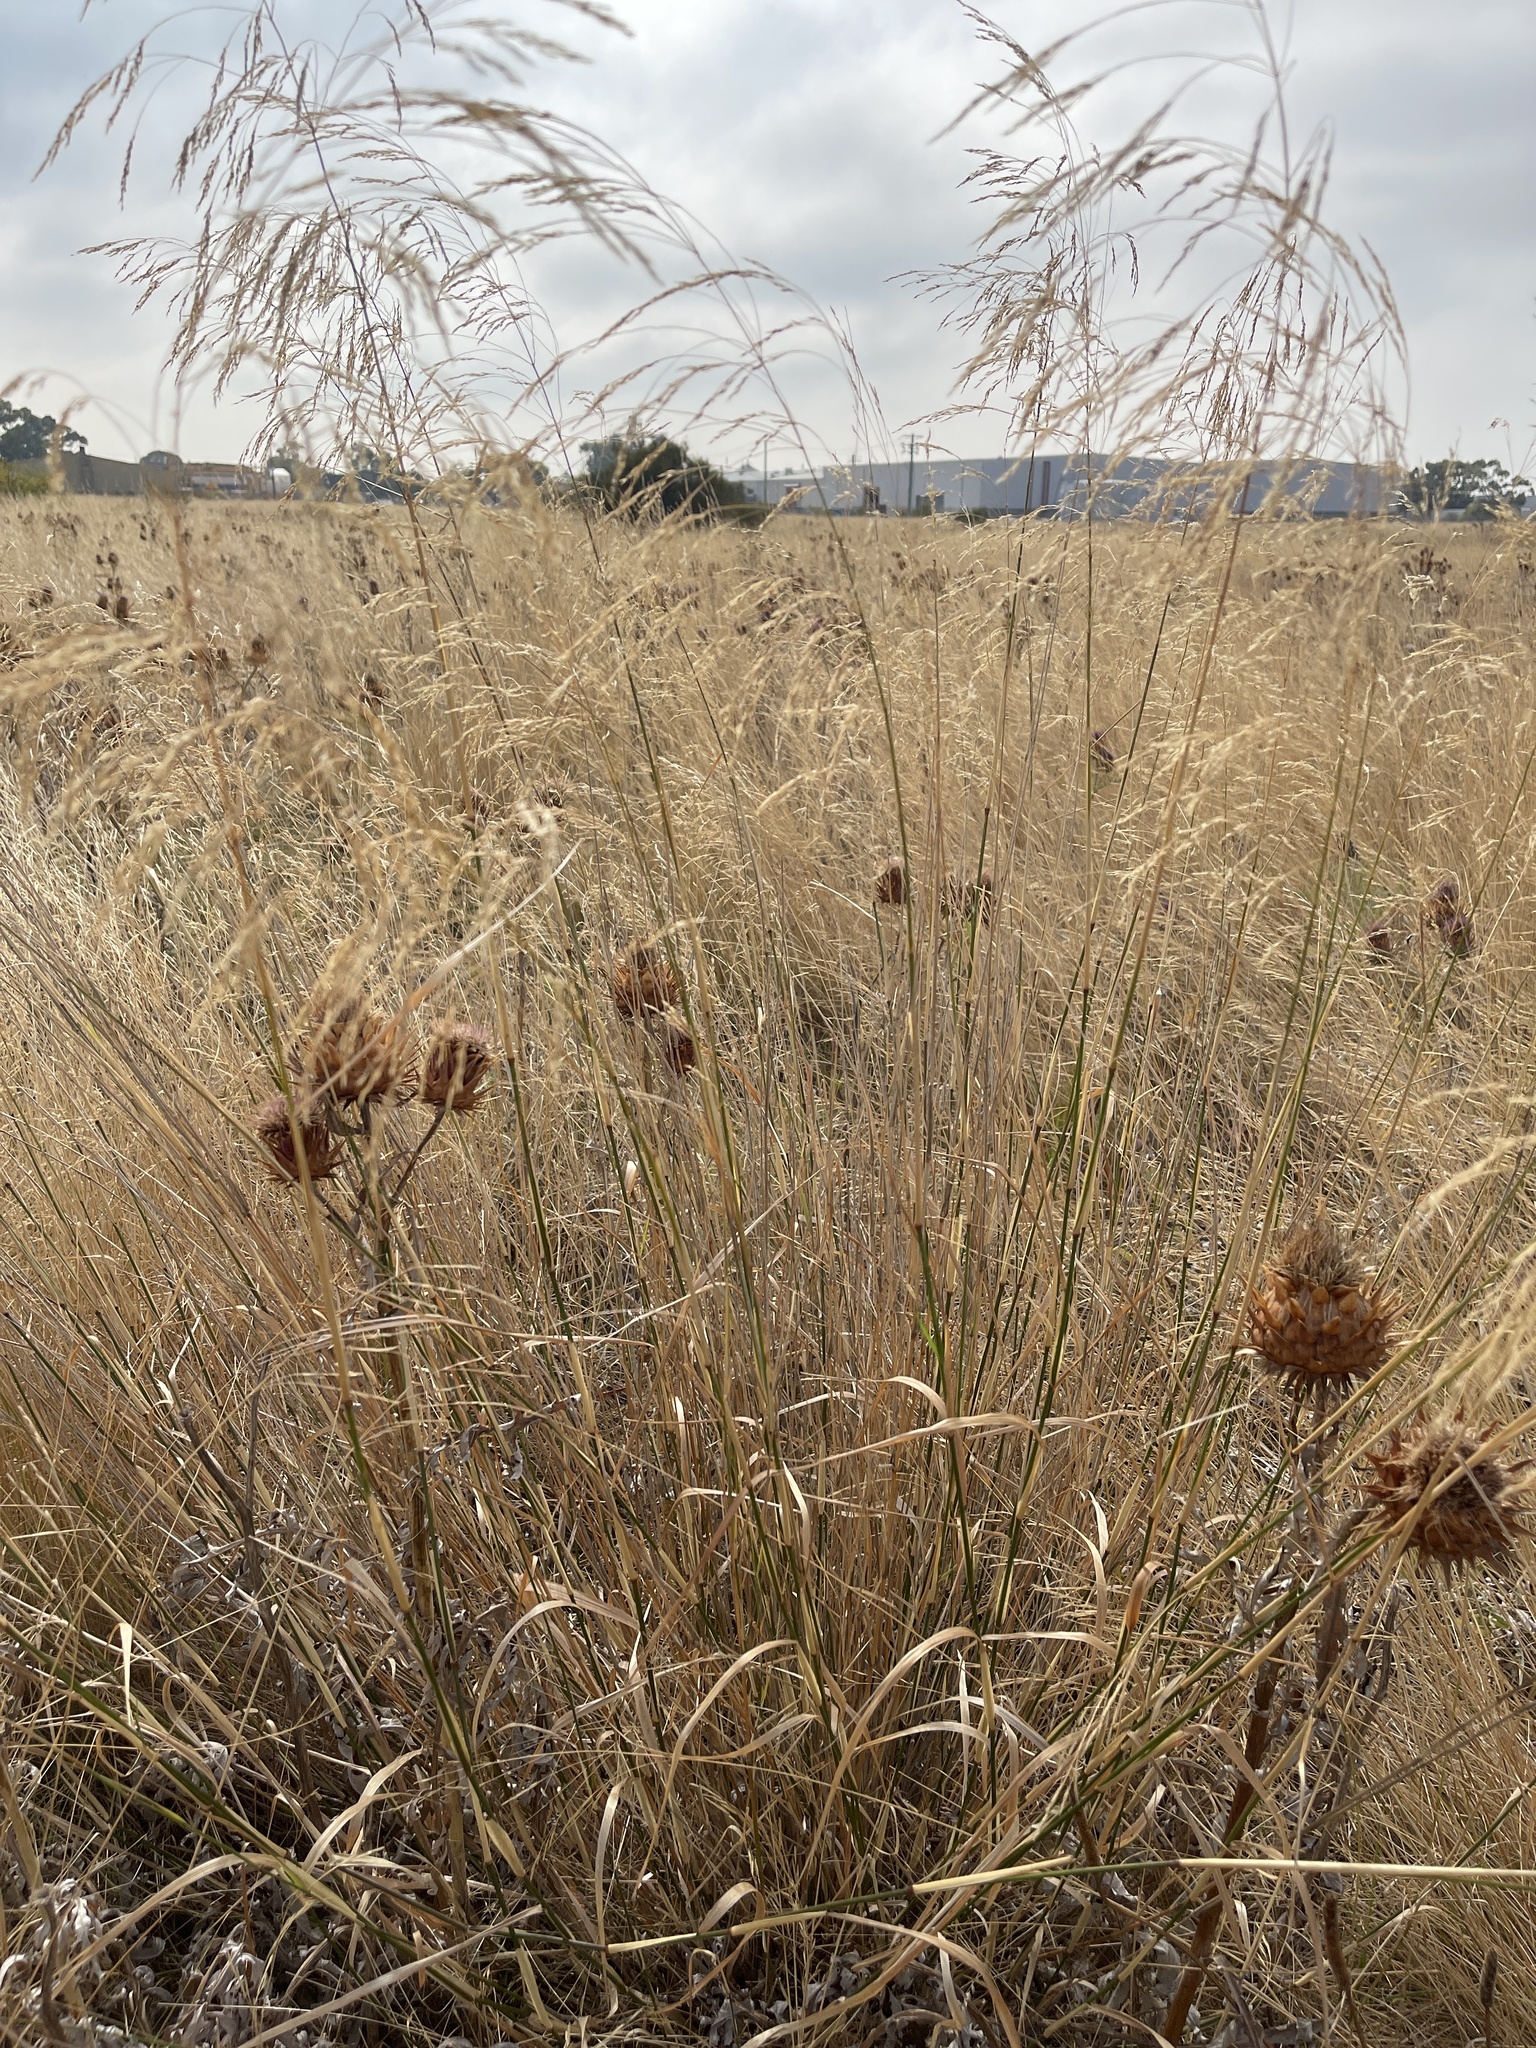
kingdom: Plantae
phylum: Tracheophyta
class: Liliopsida
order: Poales
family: Poaceae
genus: Oloptum
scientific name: Oloptum miliaceum
